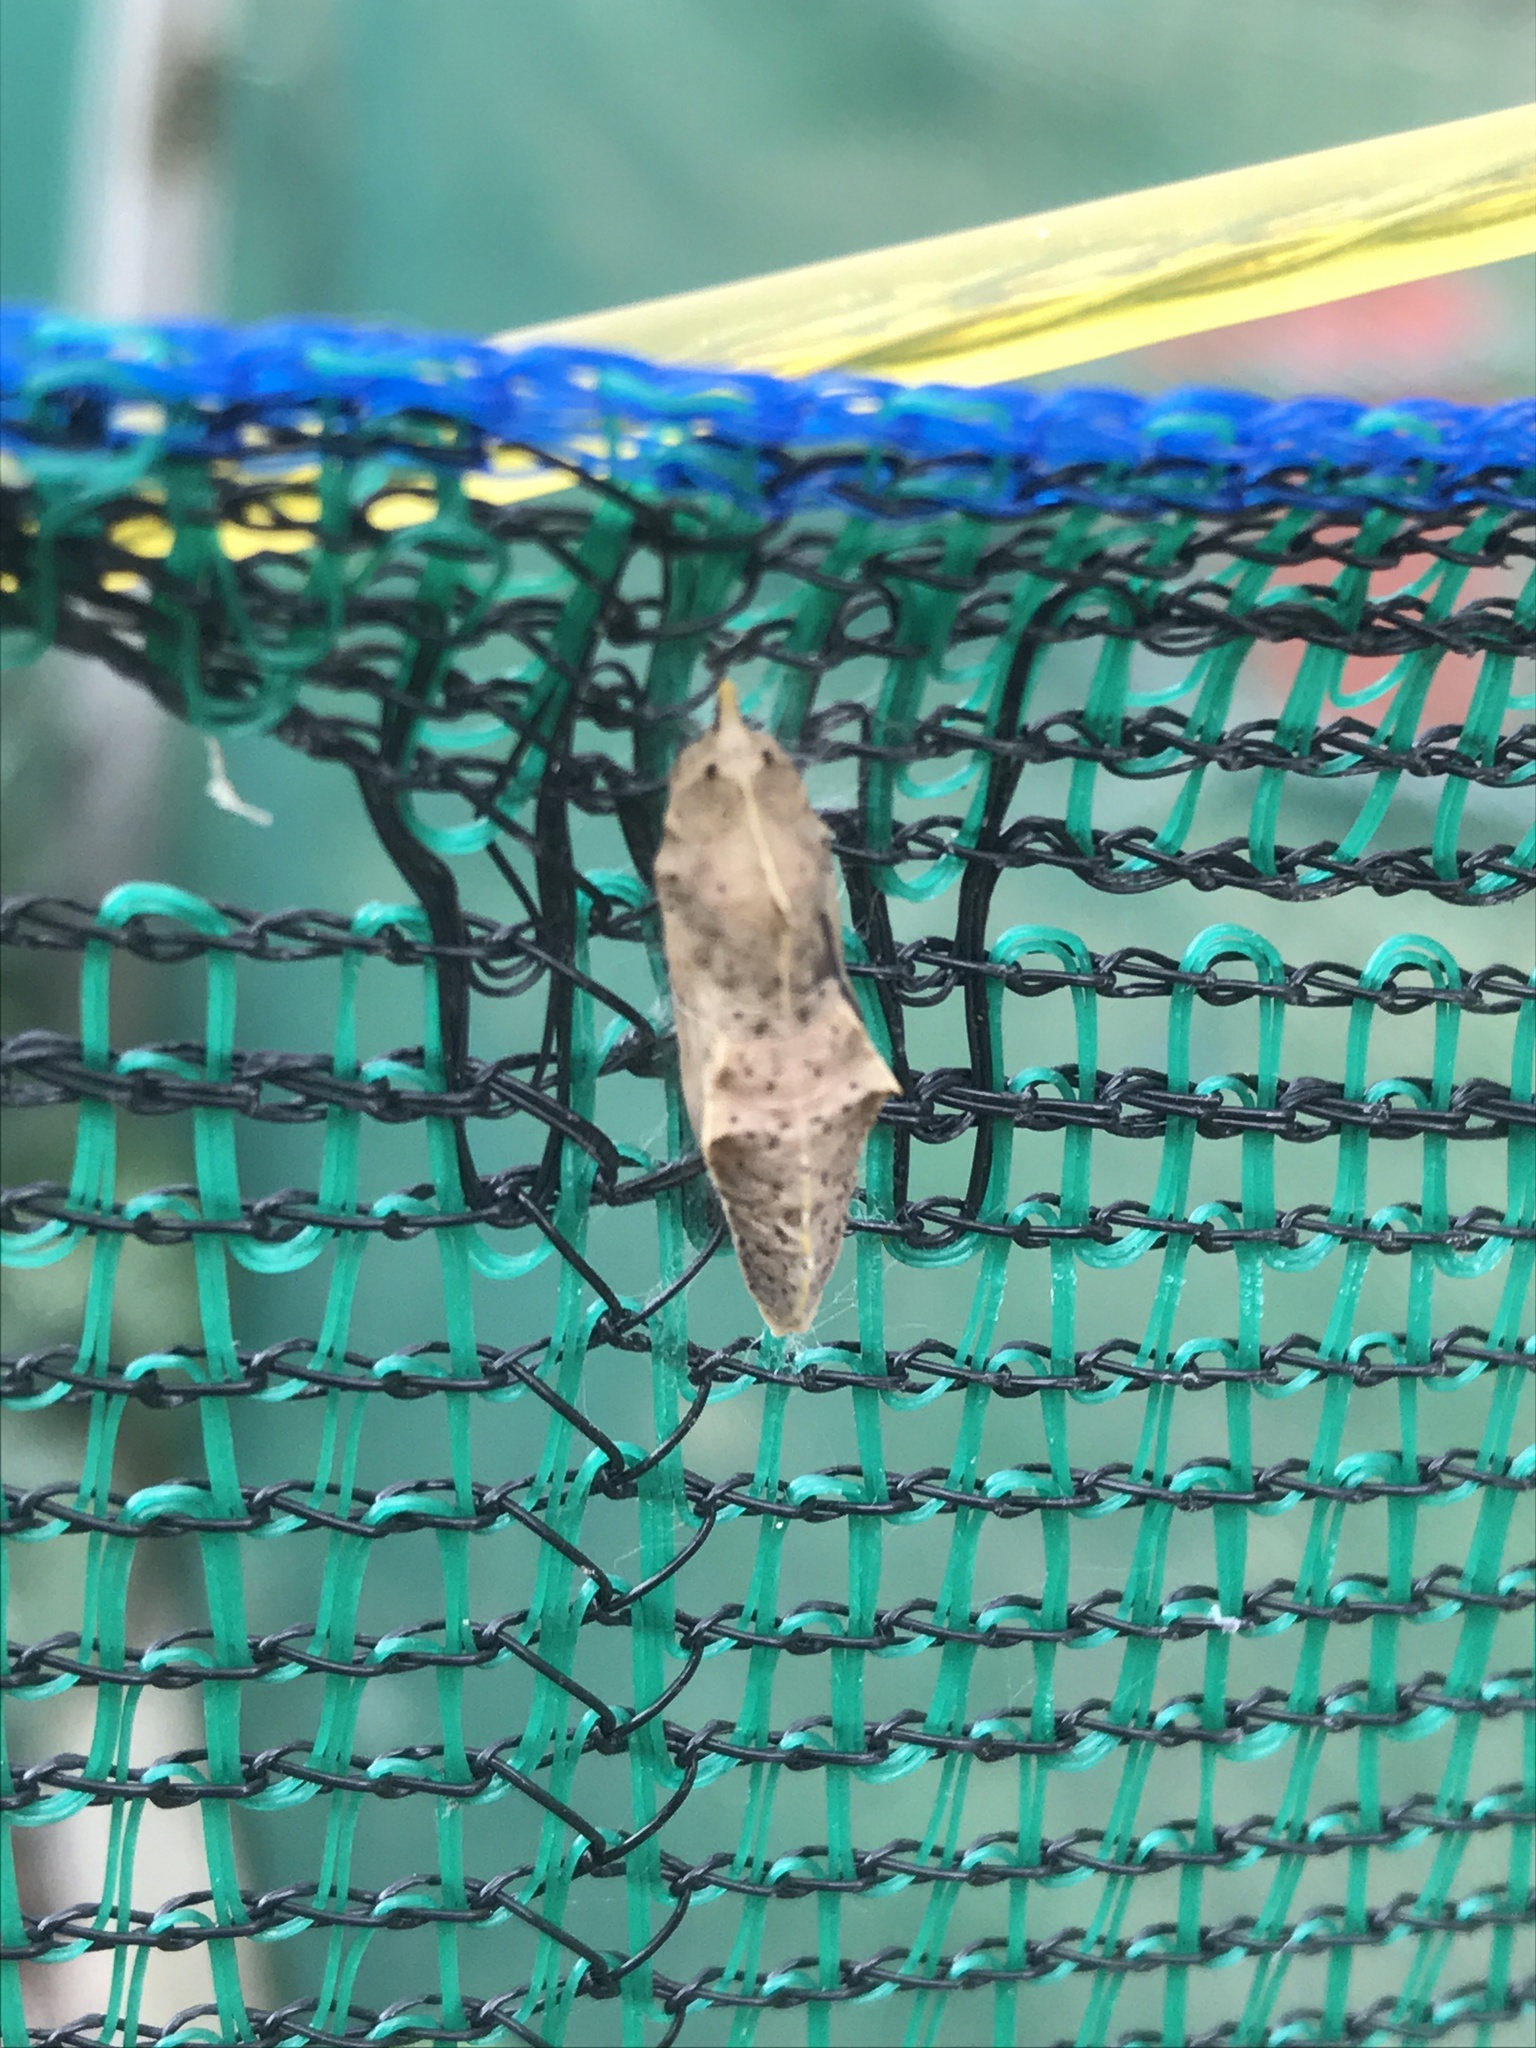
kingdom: Animalia
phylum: Arthropoda
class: Insecta
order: Lepidoptera
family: Pieridae
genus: Pieris
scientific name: Pieris rapae
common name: Small white
